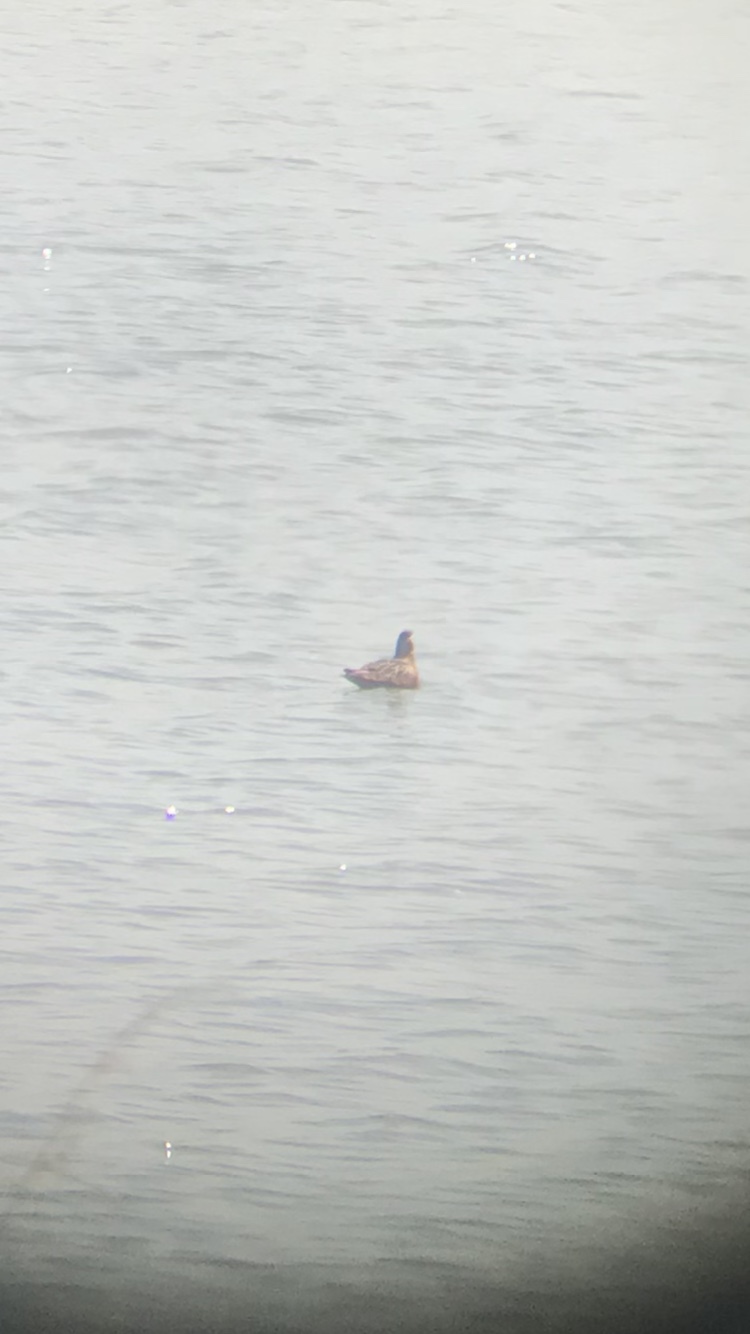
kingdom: Animalia
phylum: Chordata
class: Aves
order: Charadriiformes
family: Scolopacidae
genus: Phalaropus
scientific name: Phalaropus fulicarius
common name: Red phalarope
